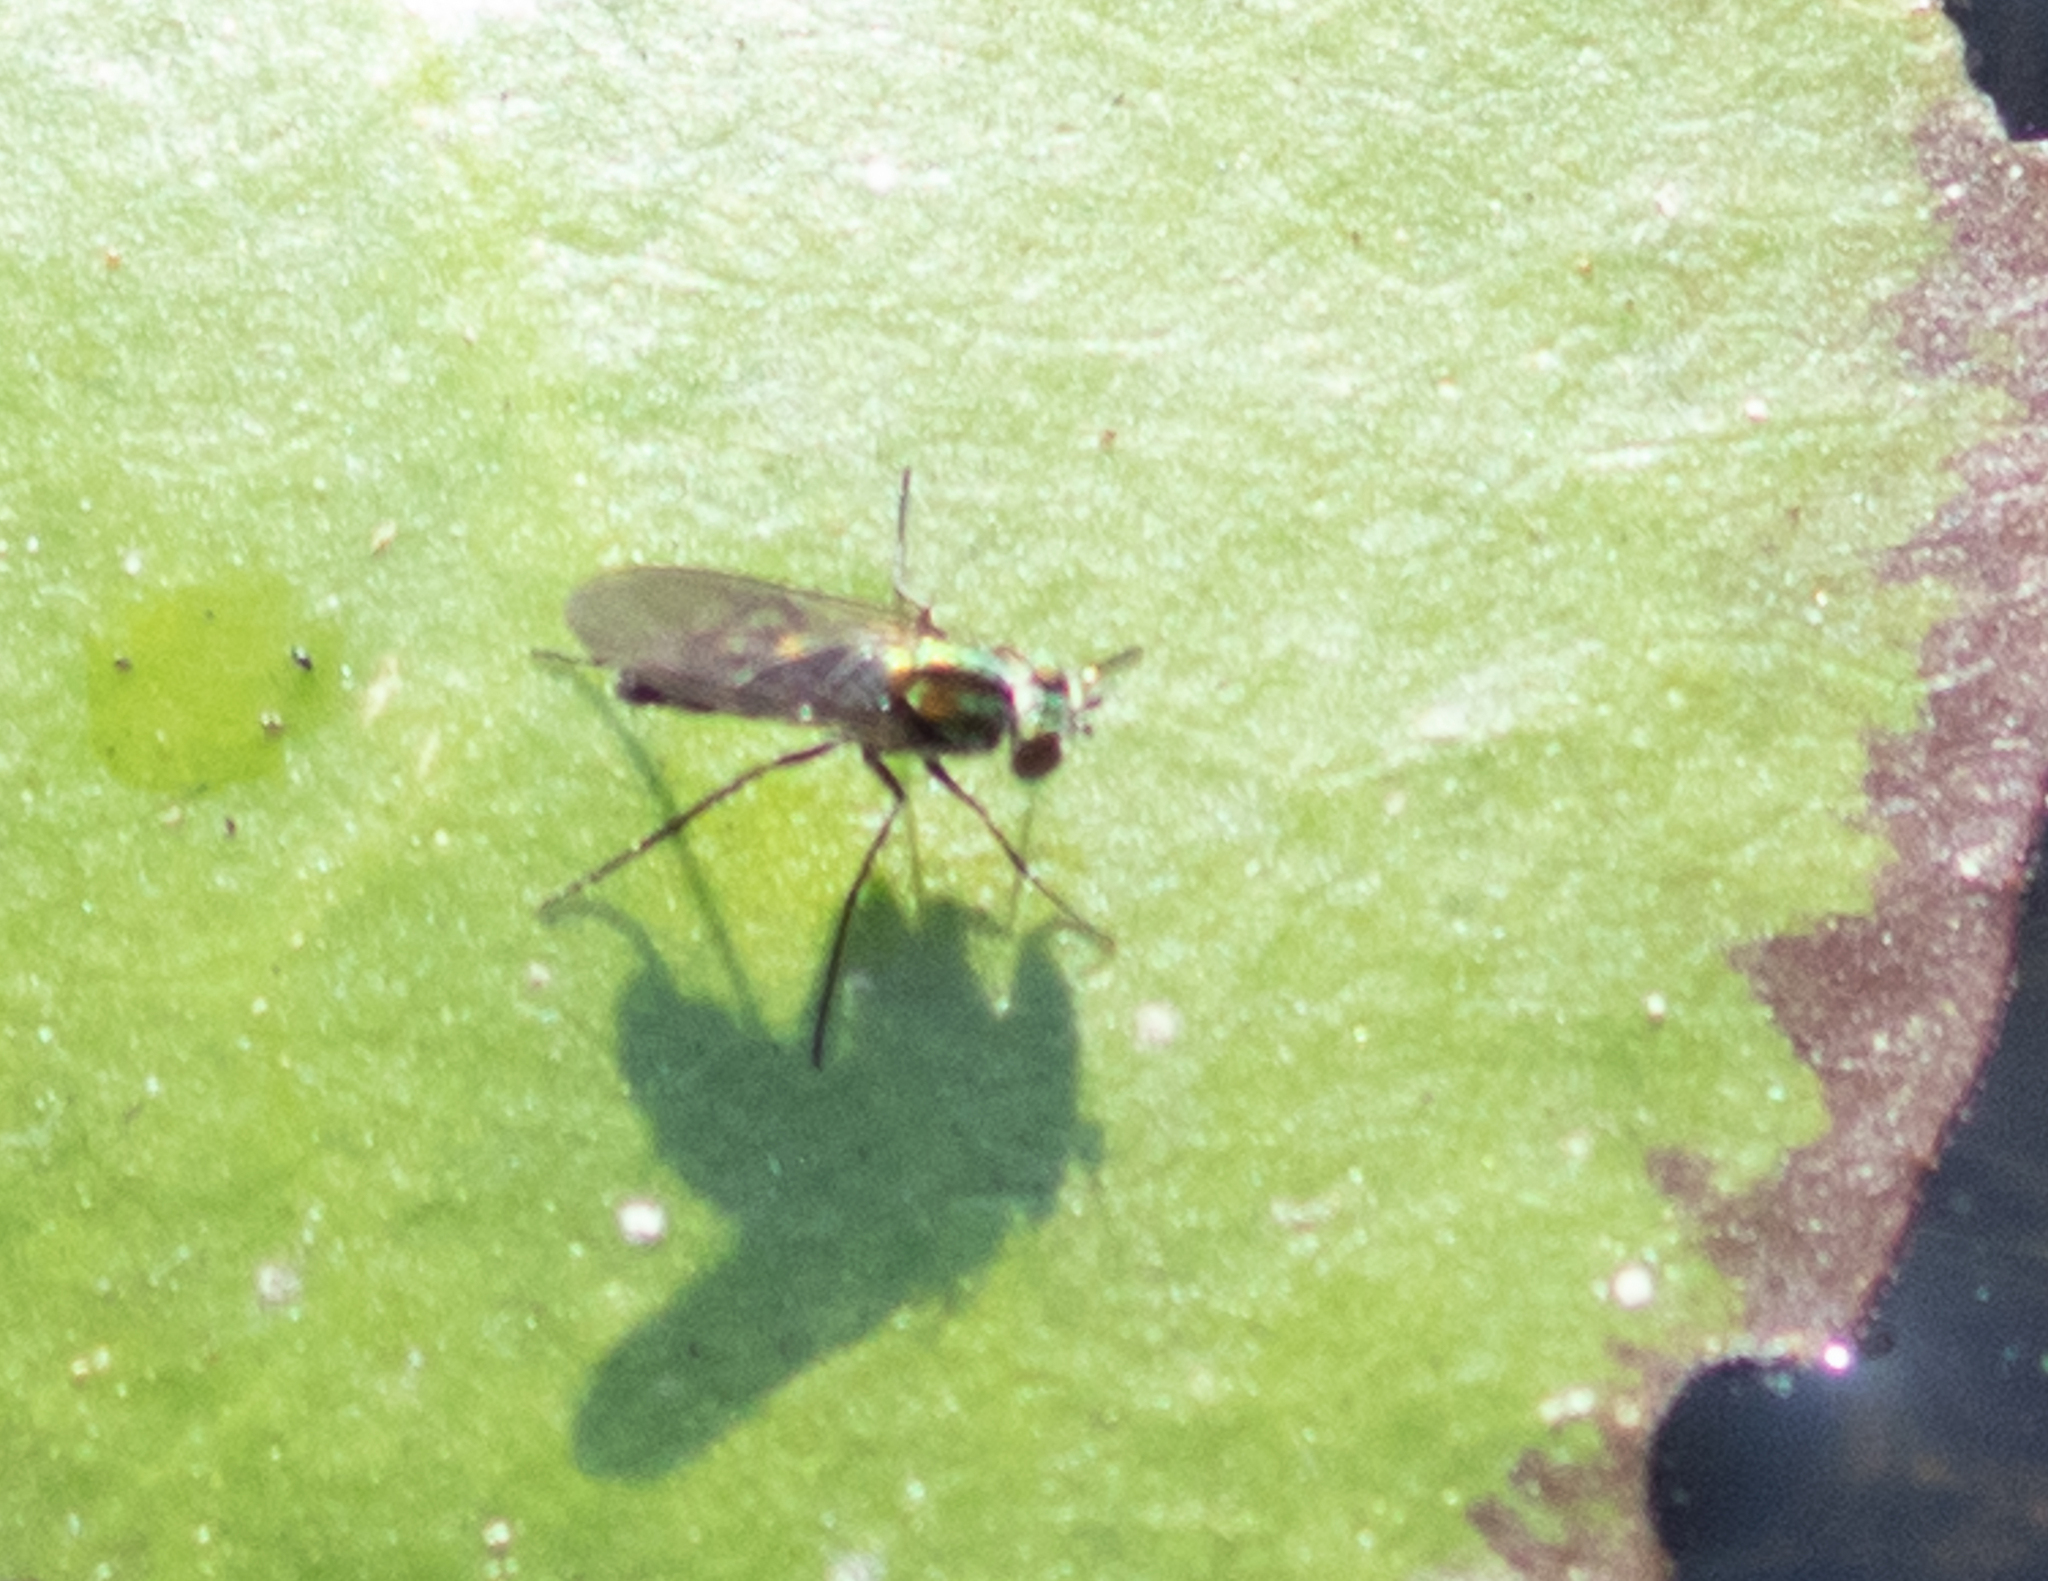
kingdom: Animalia
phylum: Arthropoda
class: Insecta
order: Diptera
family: Dolichopodidae
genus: Plagioneurus
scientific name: Plagioneurus univittatus
